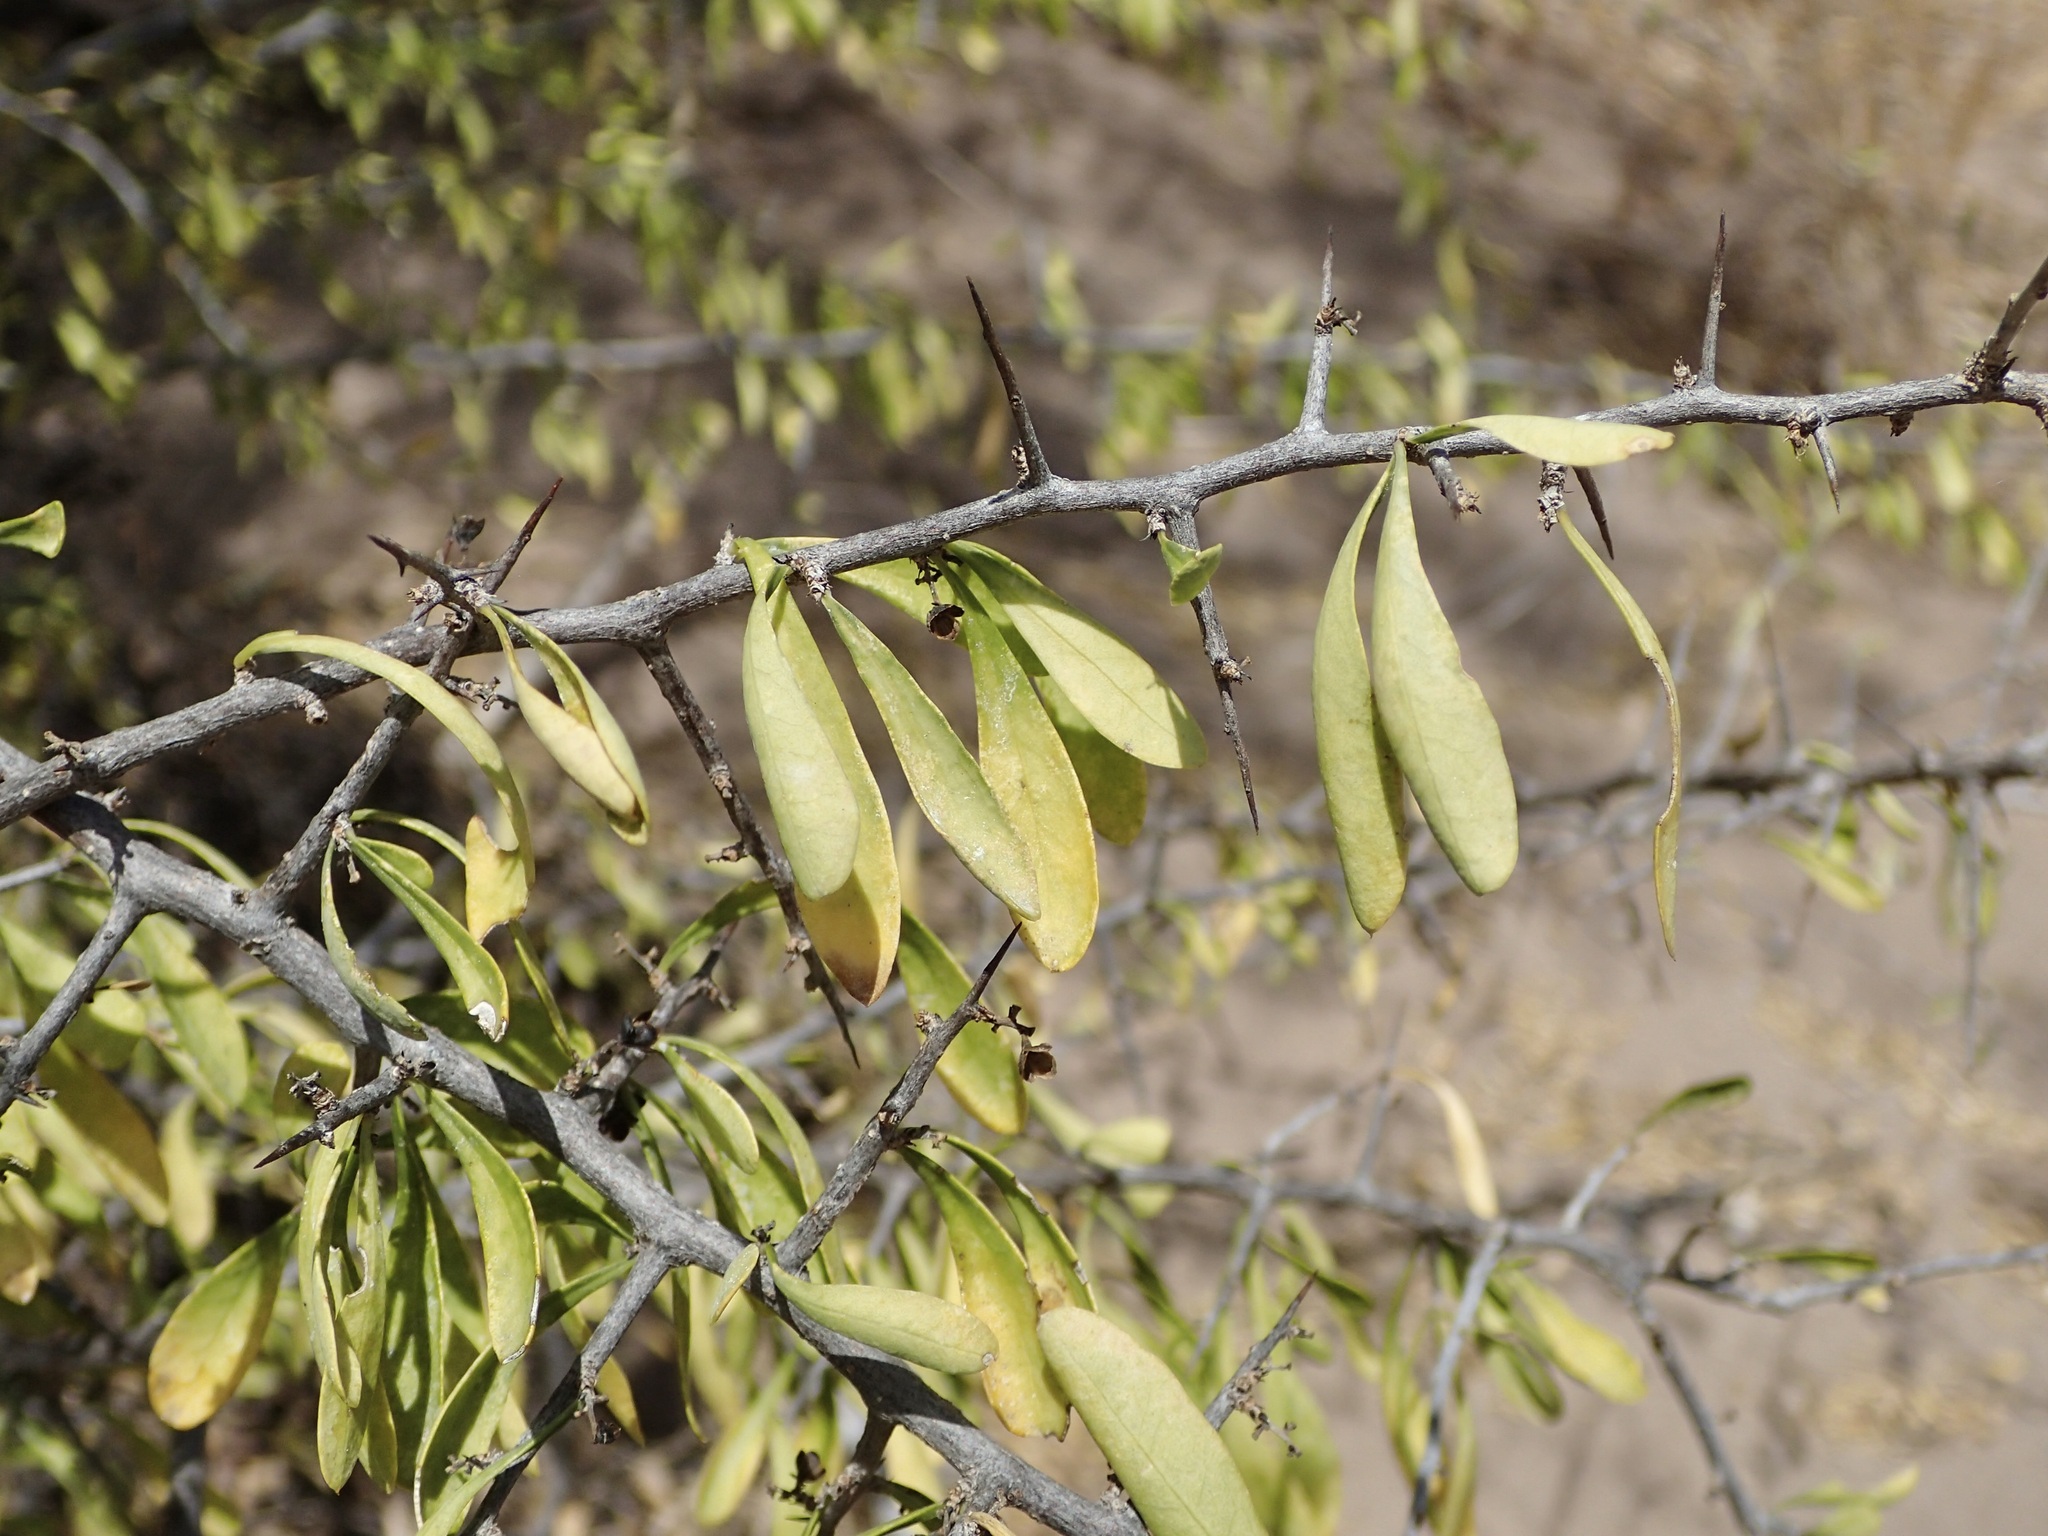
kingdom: Plantae
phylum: Tracheophyta
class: Magnoliopsida
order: Caryophyllales
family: Achatocarpaceae
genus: Phaulothamnus
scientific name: Phaulothamnus spinescens
